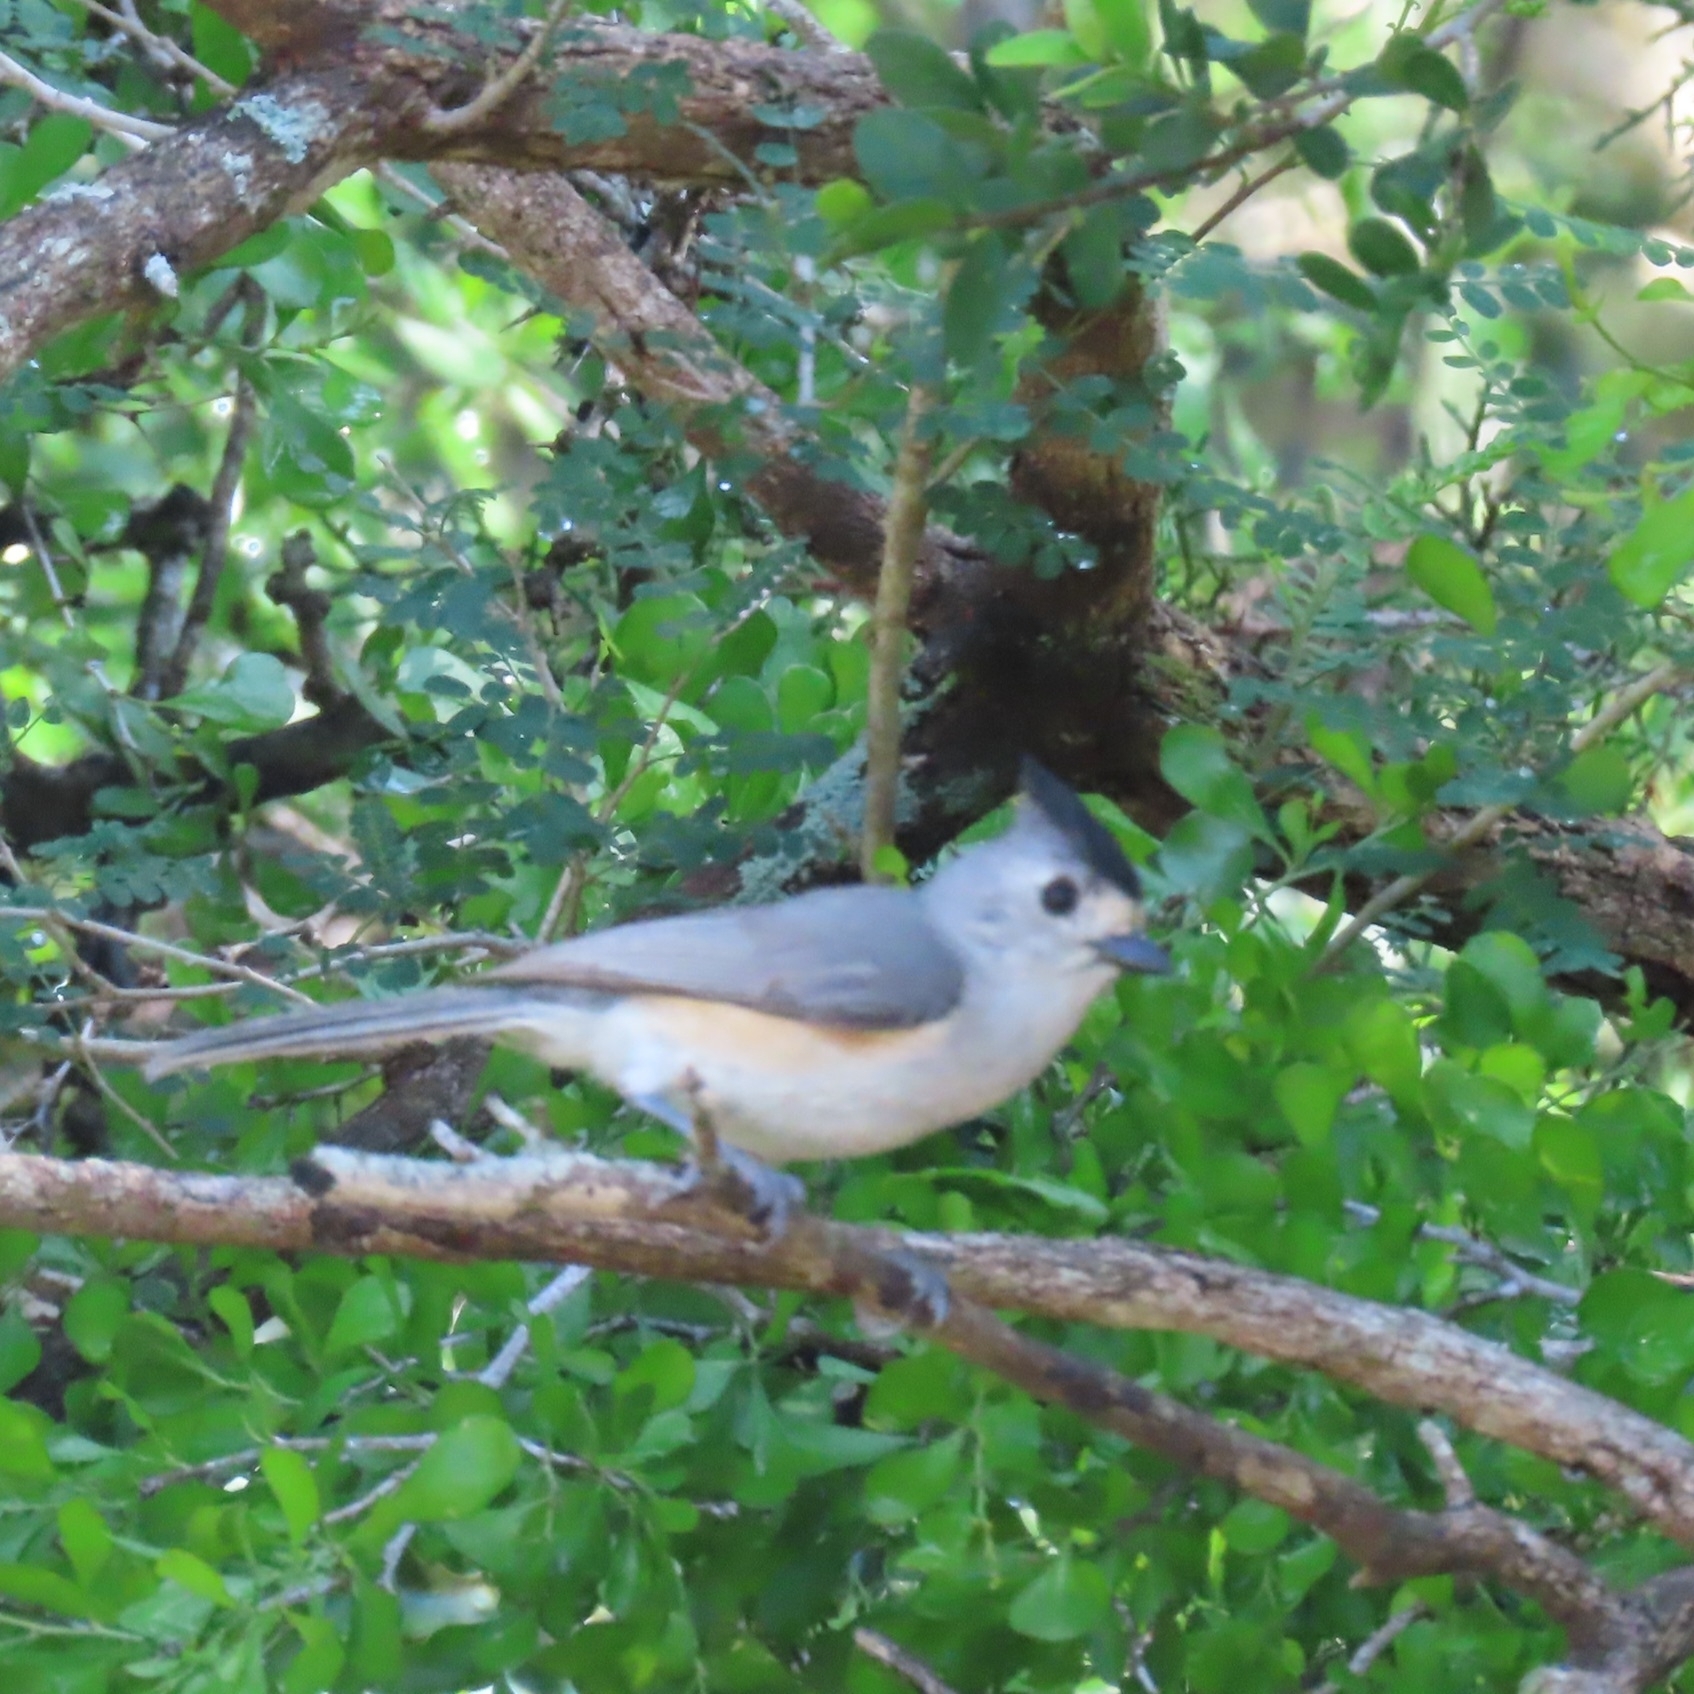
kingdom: Animalia
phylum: Chordata
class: Aves
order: Passeriformes
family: Paridae
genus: Baeolophus
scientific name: Baeolophus atricristatus
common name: Black-crested titmouse
